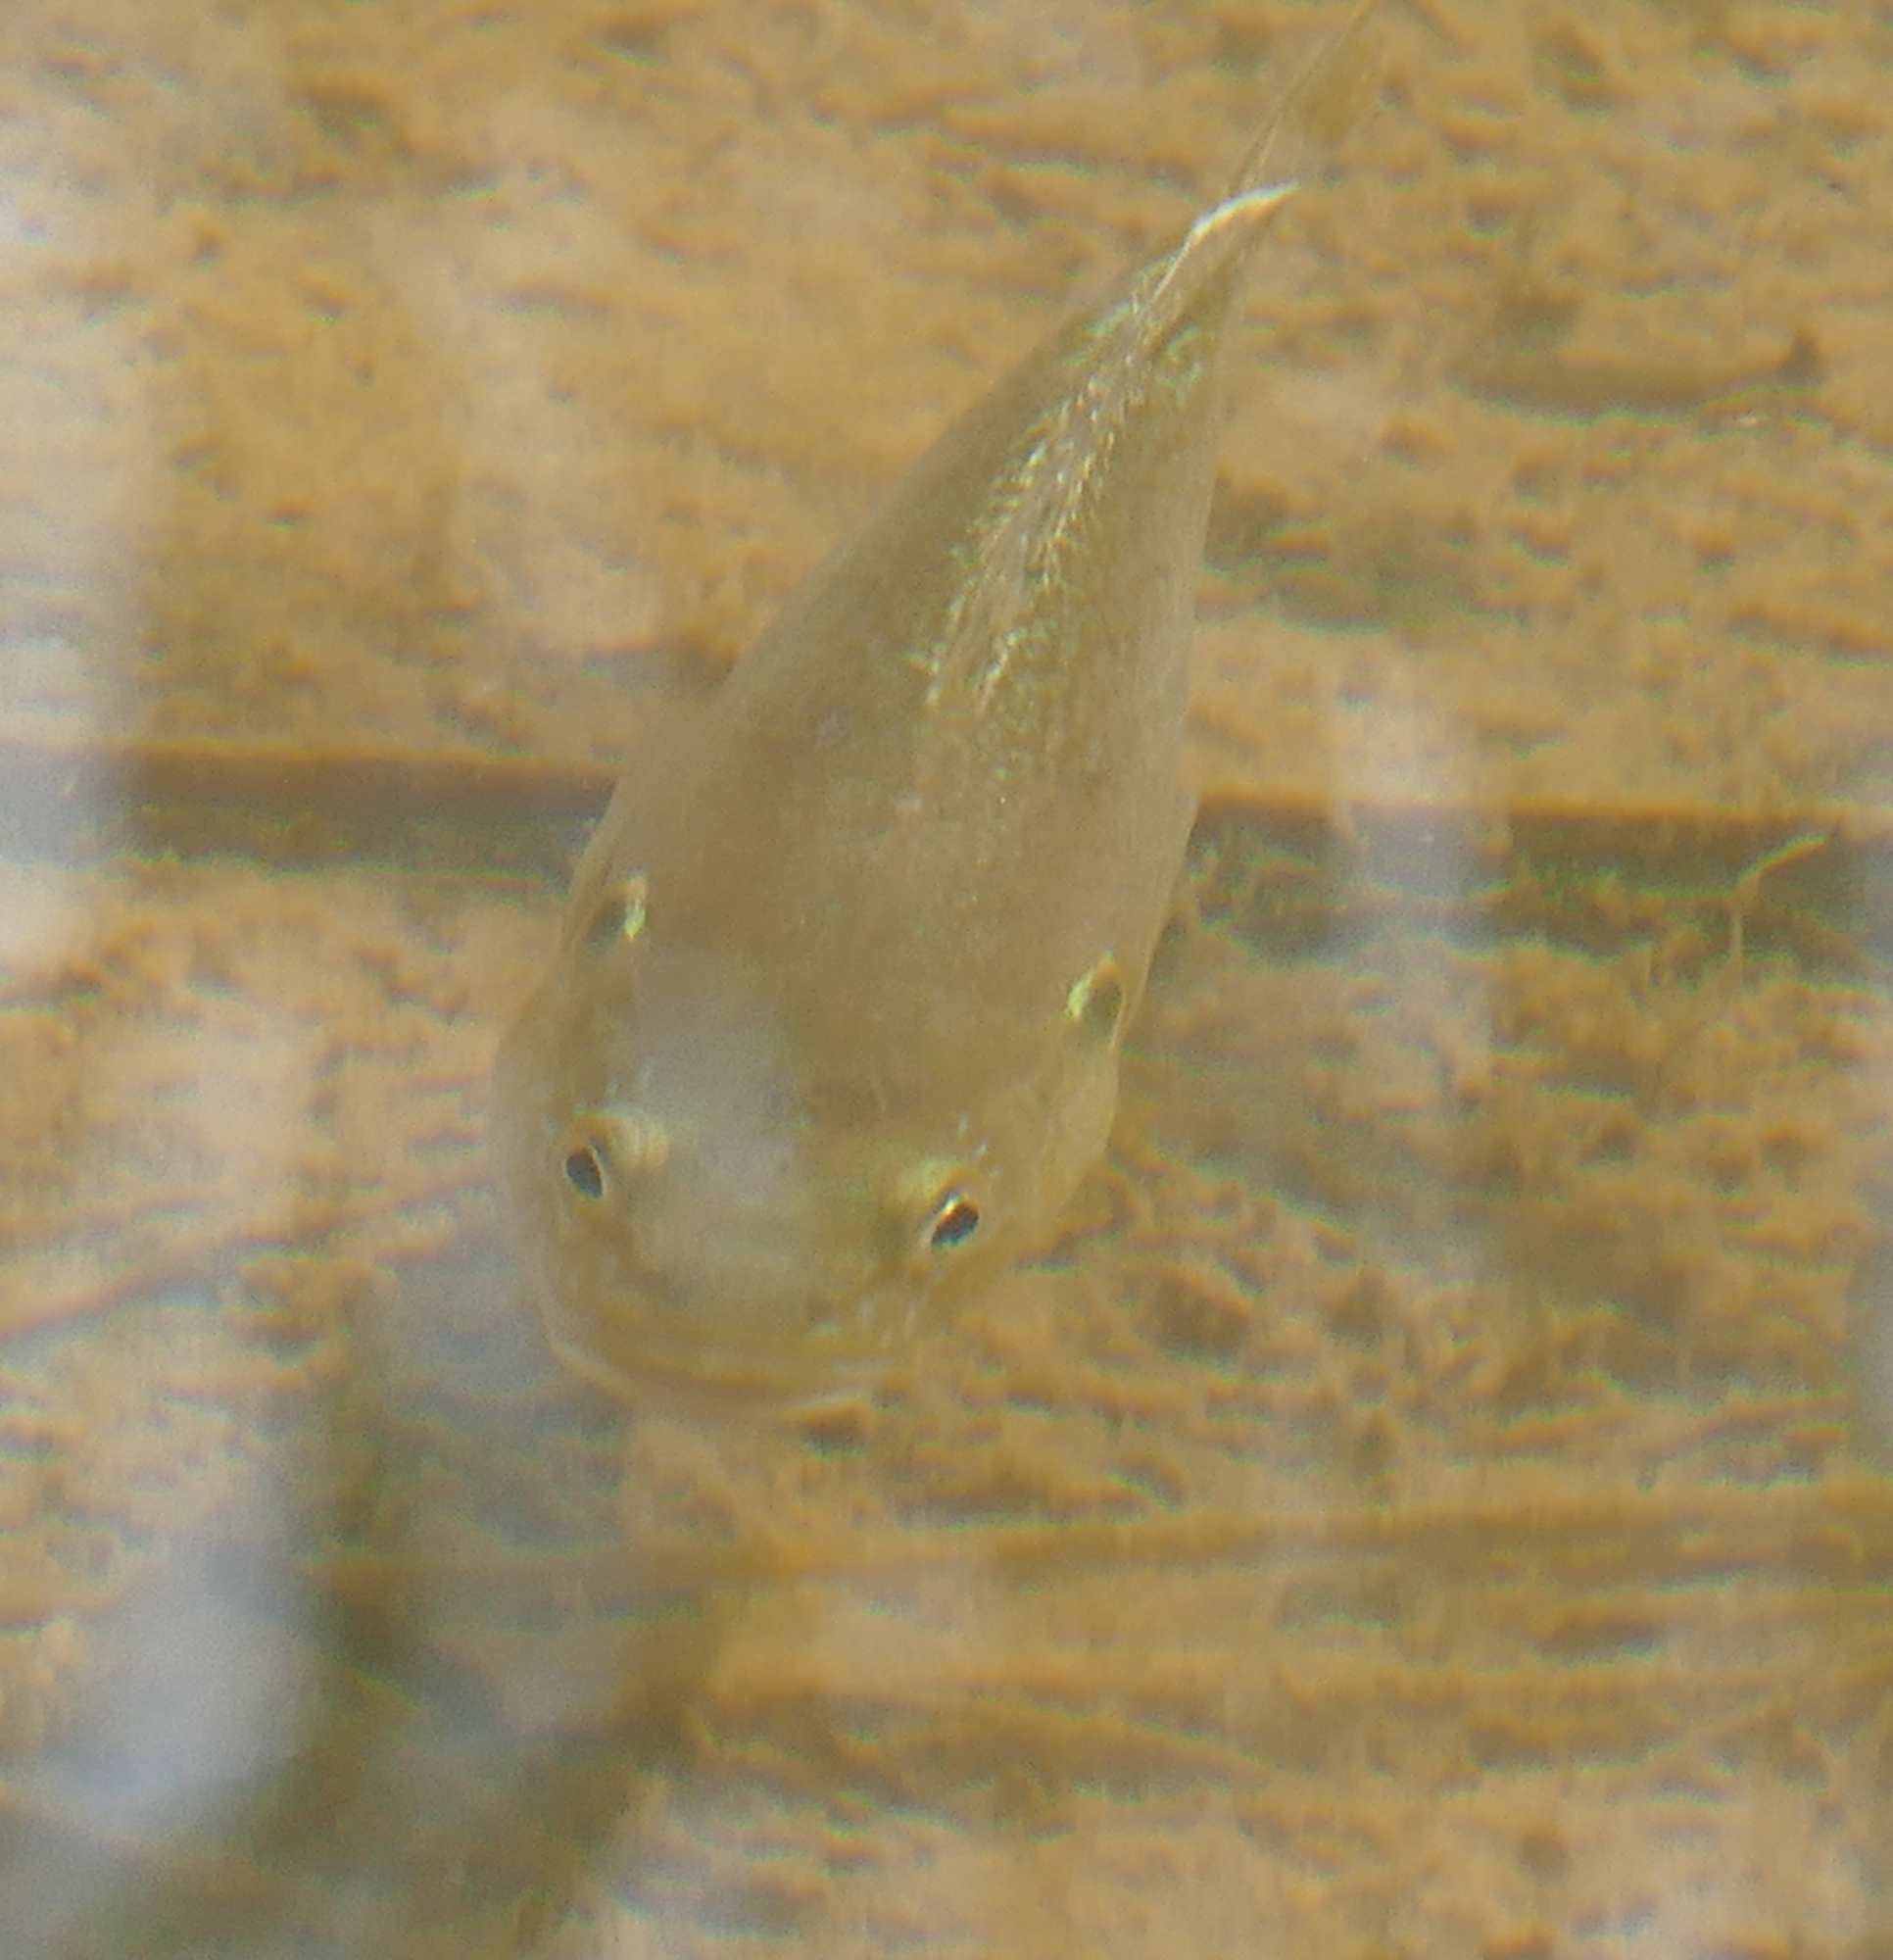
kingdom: Animalia
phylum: Chordata
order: Perciformes
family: Centrarchidae
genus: Lepomis
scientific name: Lepomis cyanellus
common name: Green sunfish
